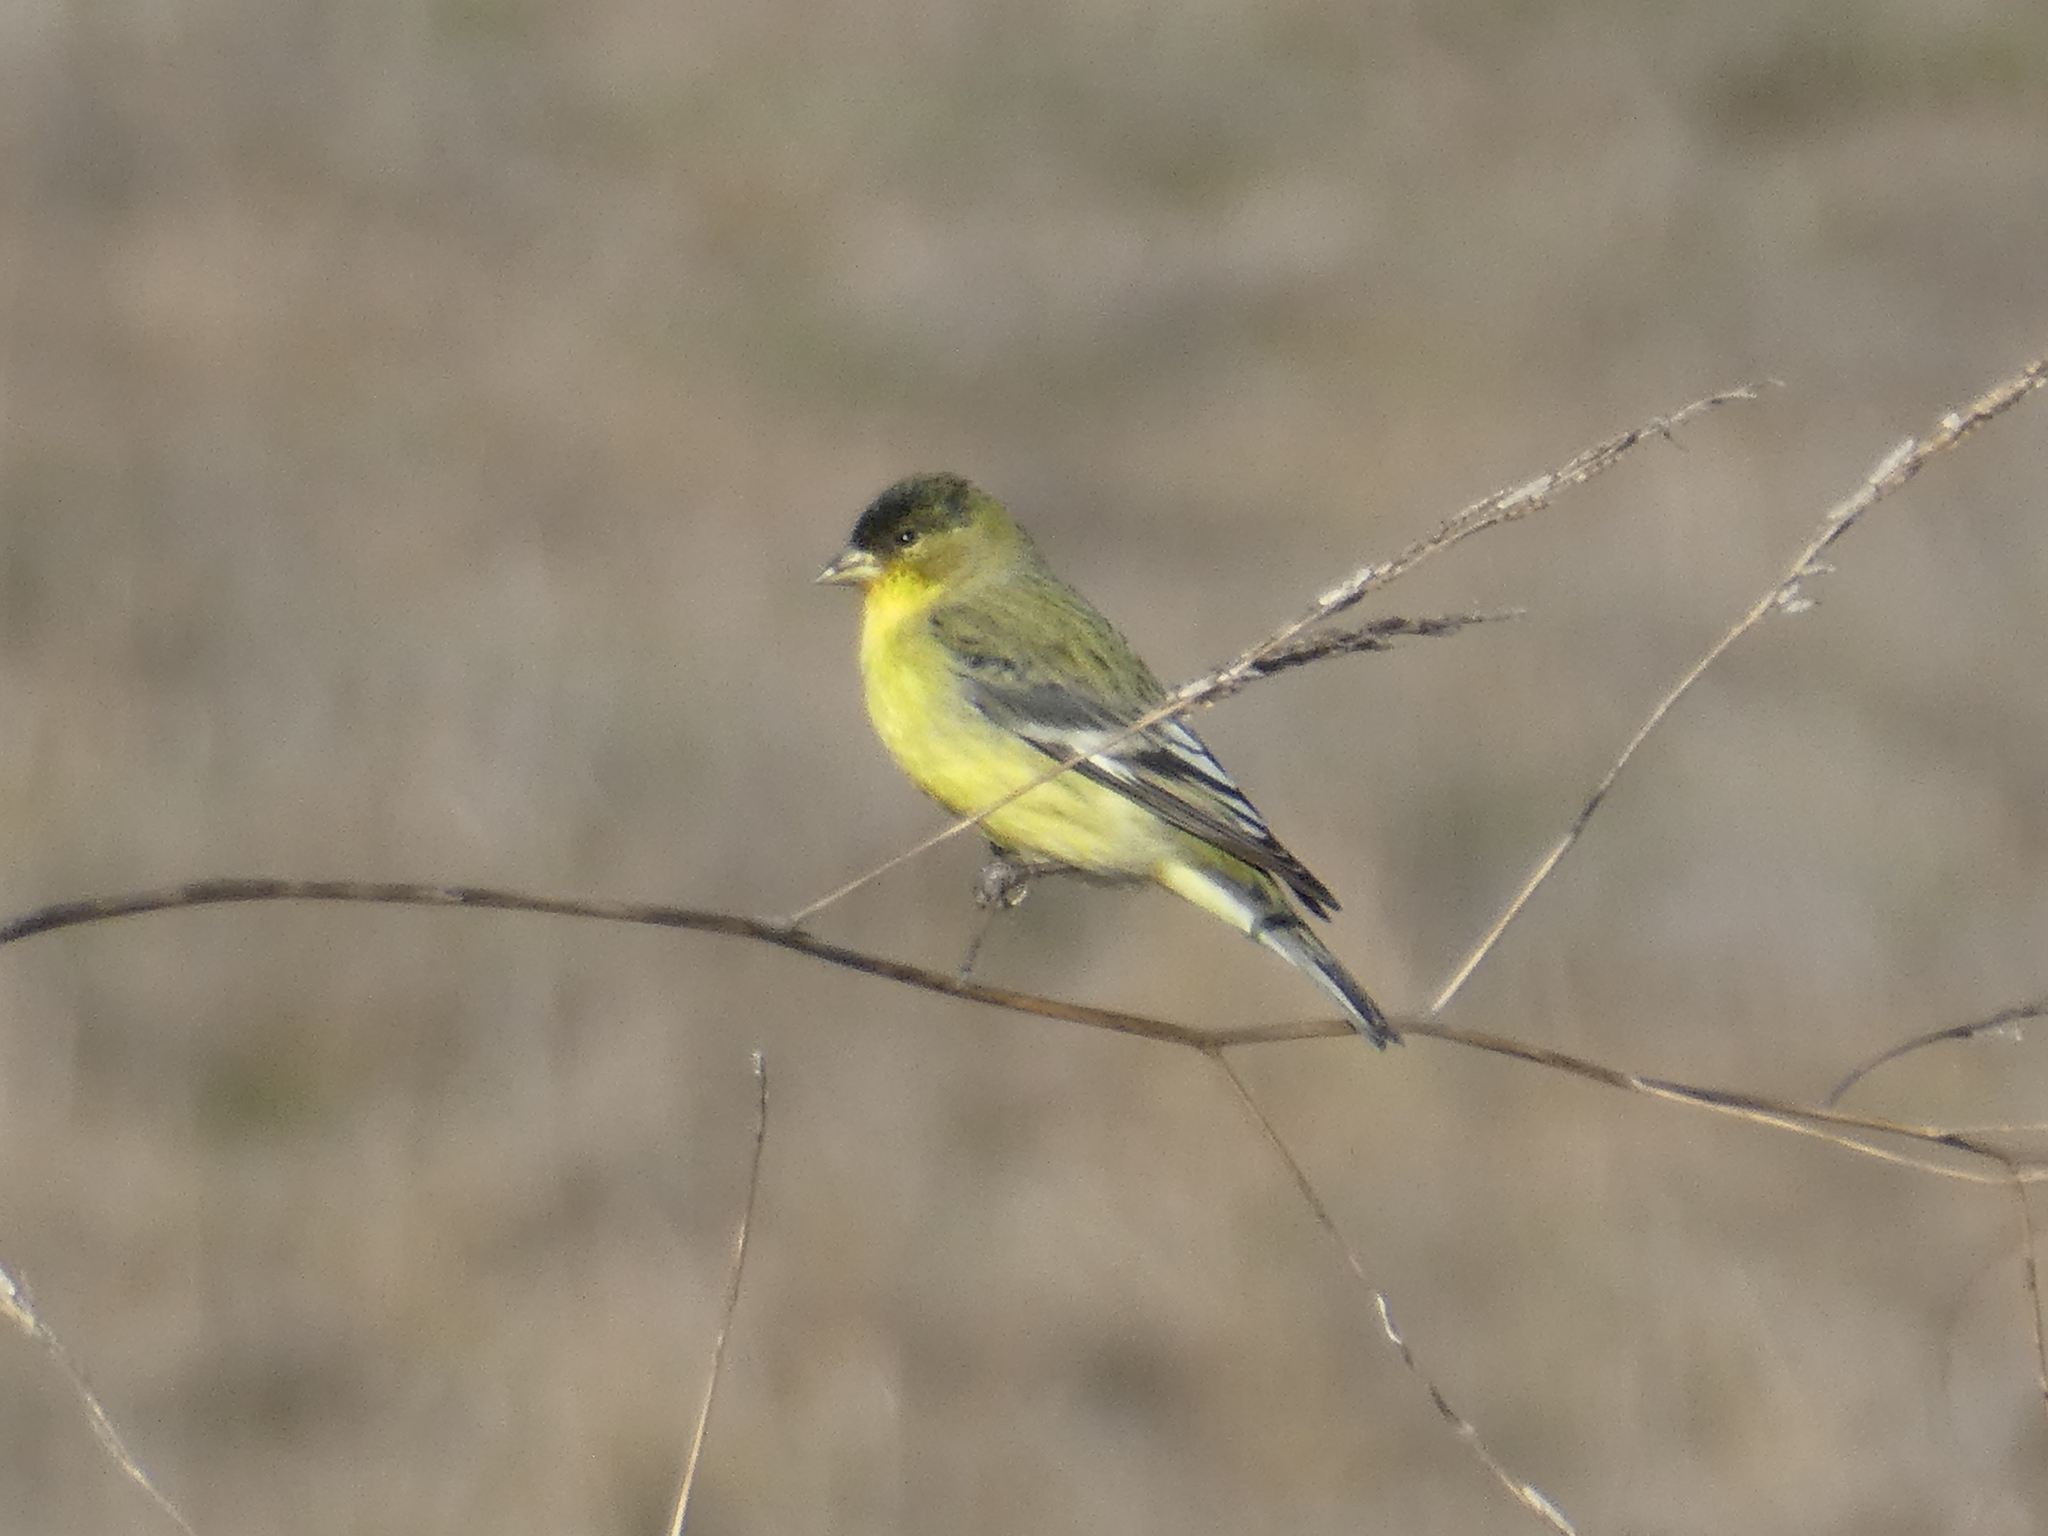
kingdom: Animalia
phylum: Chordata
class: Aves
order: Passeriformes
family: Fringillidae
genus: Spinus
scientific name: Spinus psaltria
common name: Lesser goldfinch
